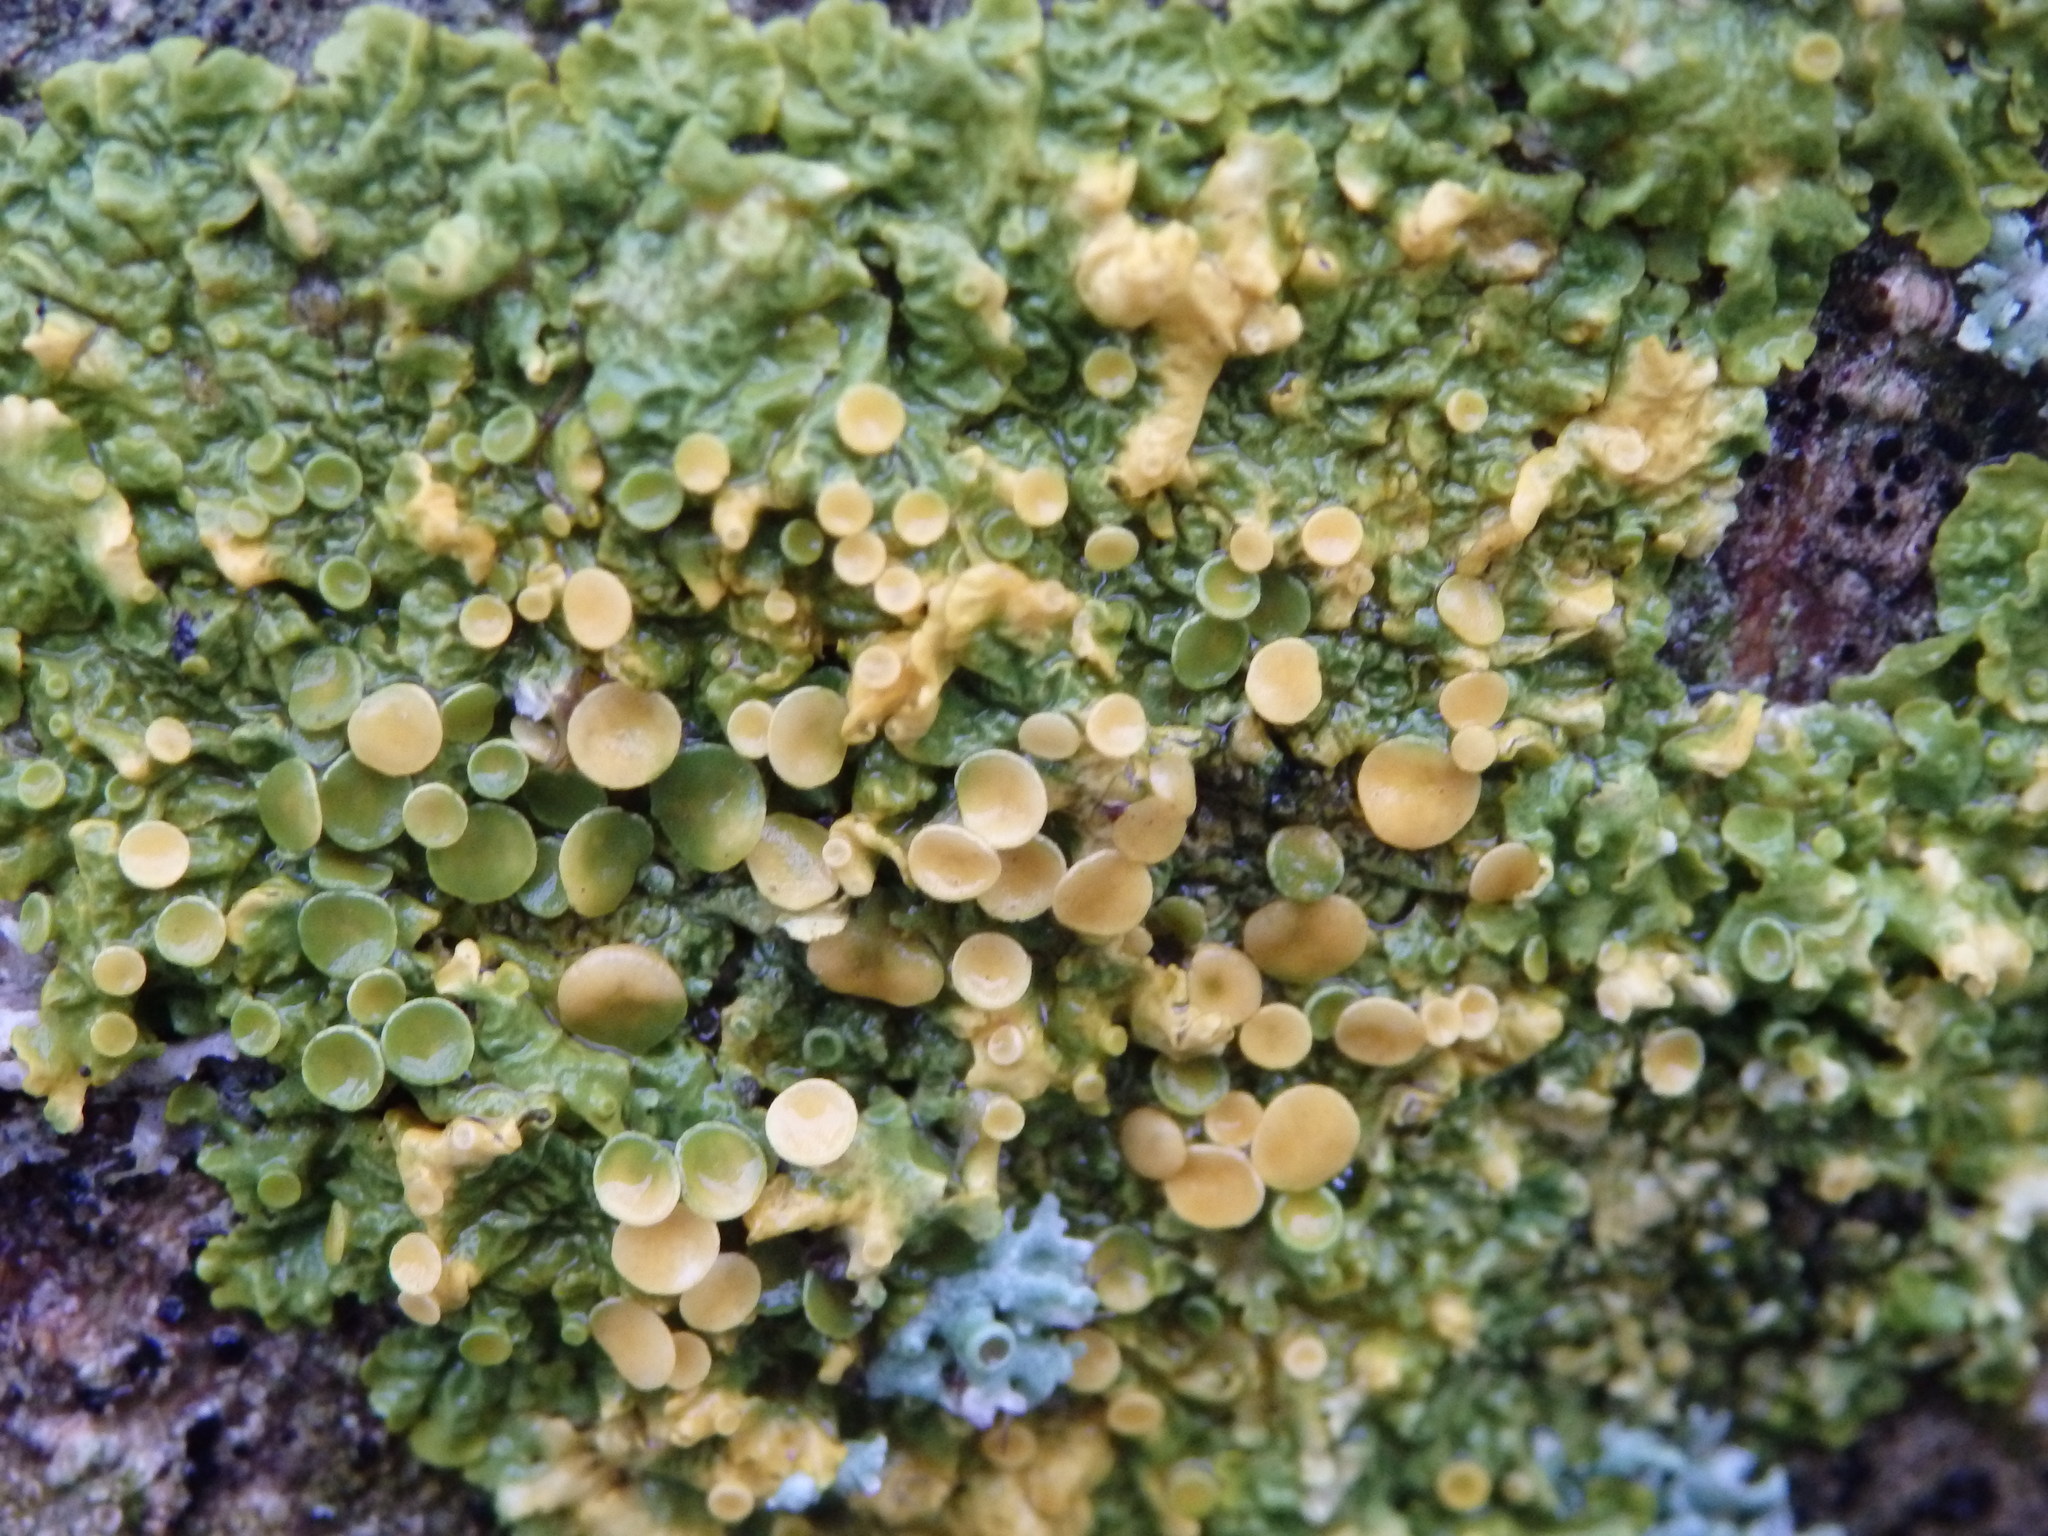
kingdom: Fungi
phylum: Ascomycota
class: Lecanoromycetes
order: Teloschistales
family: Teloschistaceae
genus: Xanthoria
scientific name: Xanthoria parietina
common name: Common orange lichen
